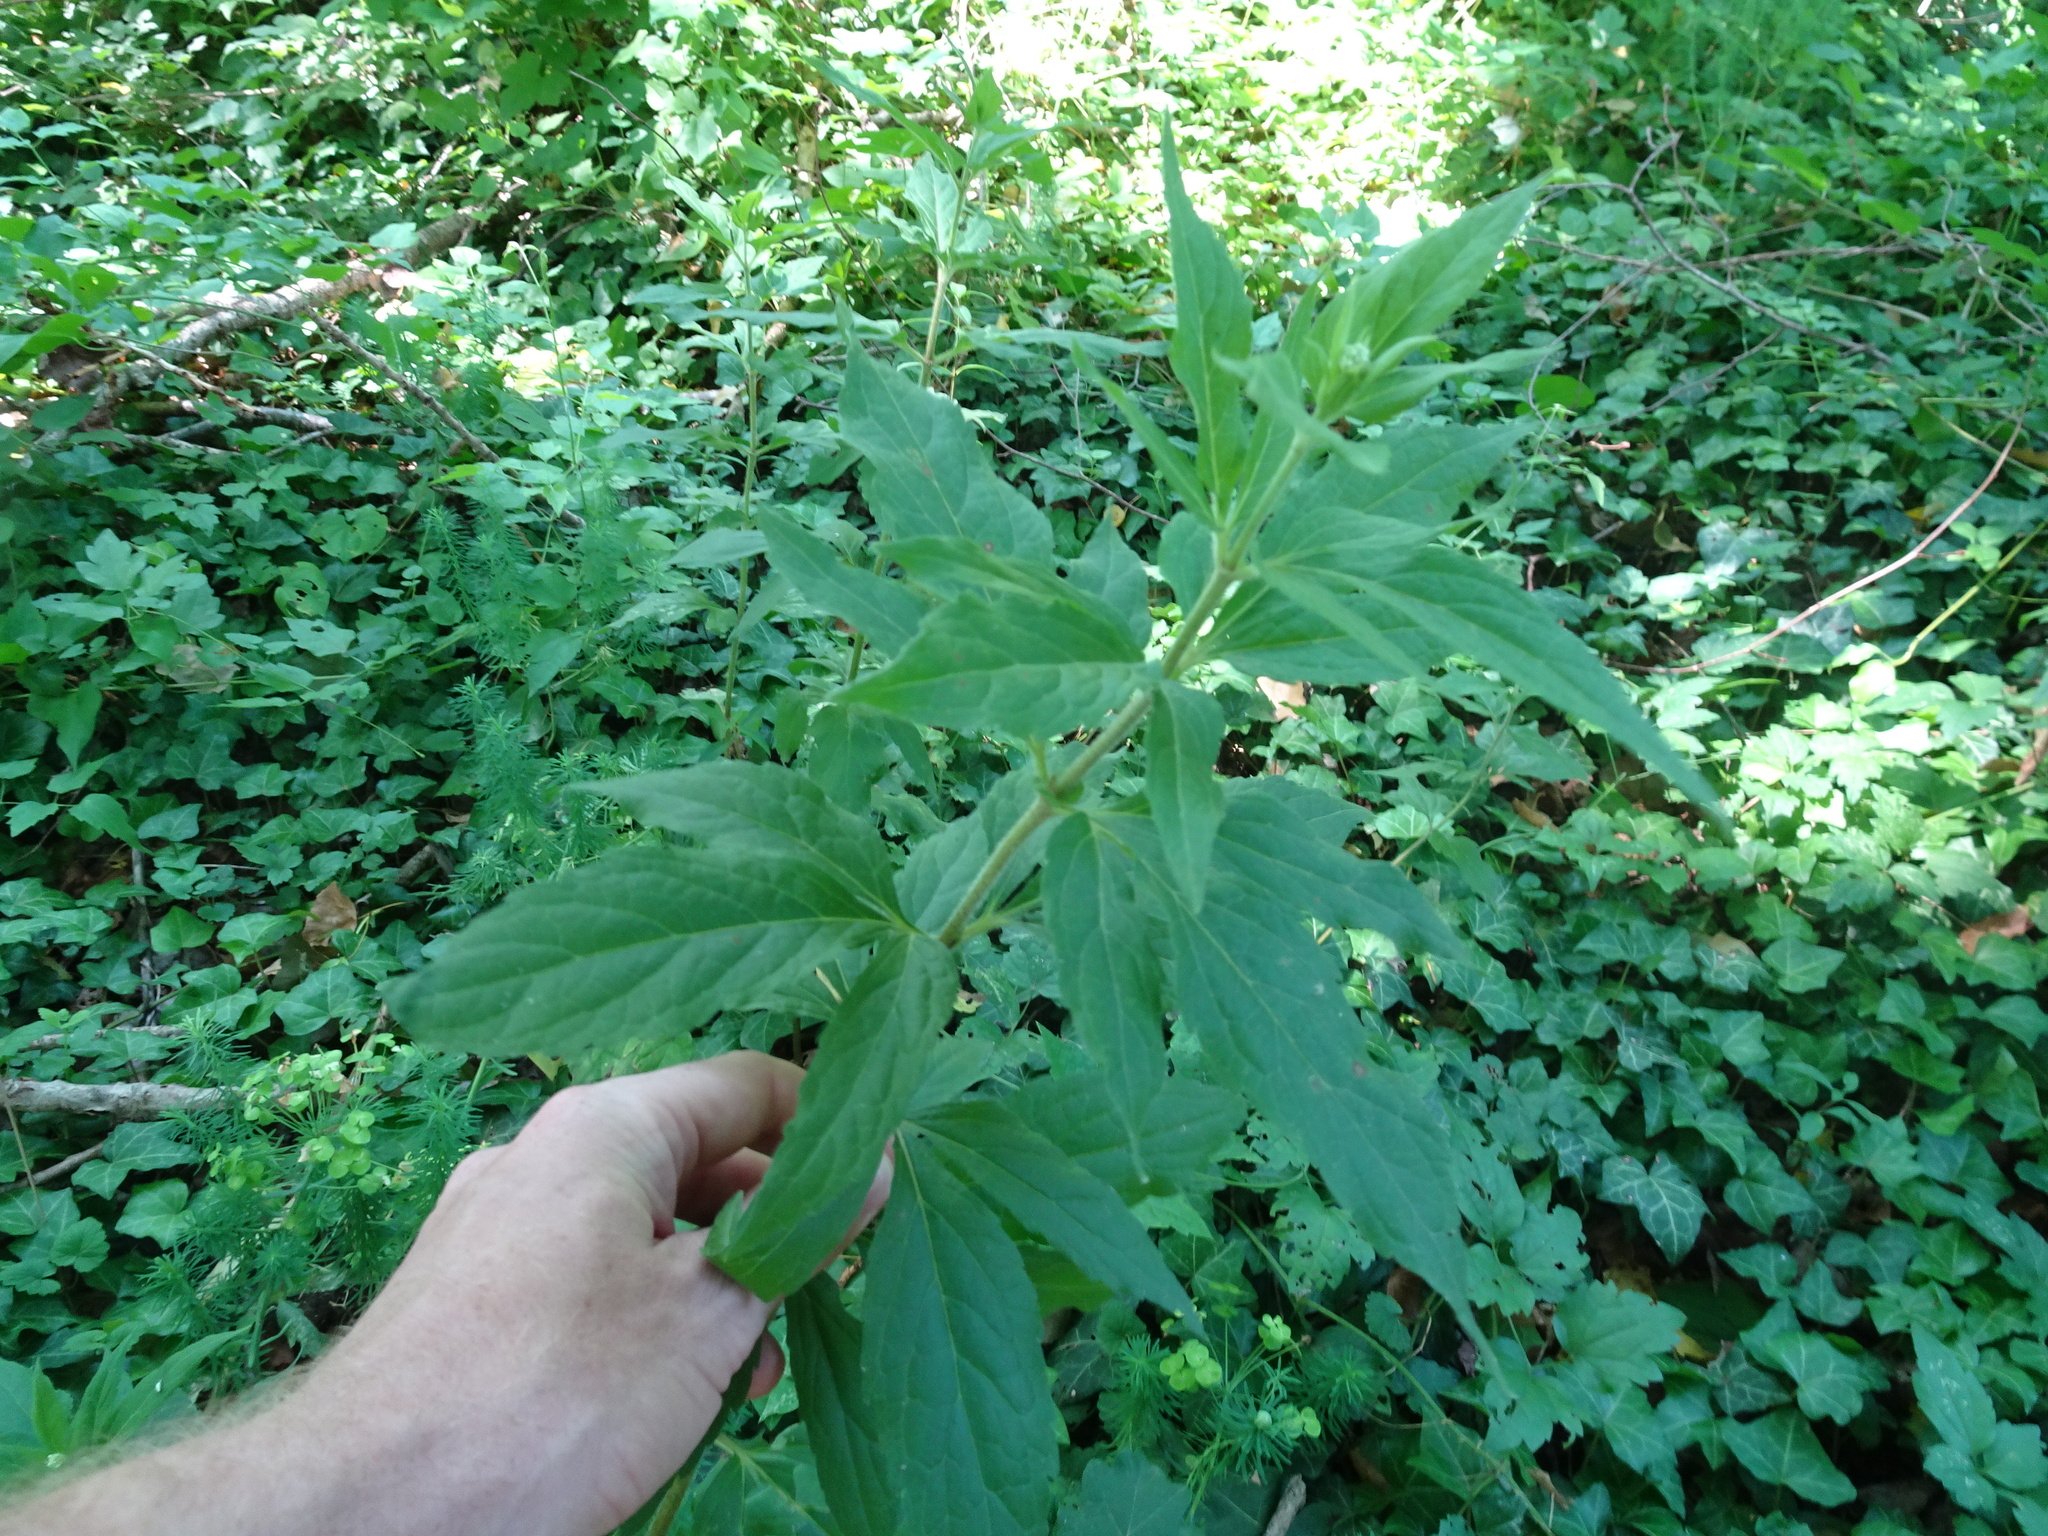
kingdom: Plantae
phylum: Tracheophyta
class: Magnoliopsida
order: Asterales
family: Asteraceae
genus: Eupatorium
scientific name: Eupatorium cannabinum
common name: Hemp-agrimony
